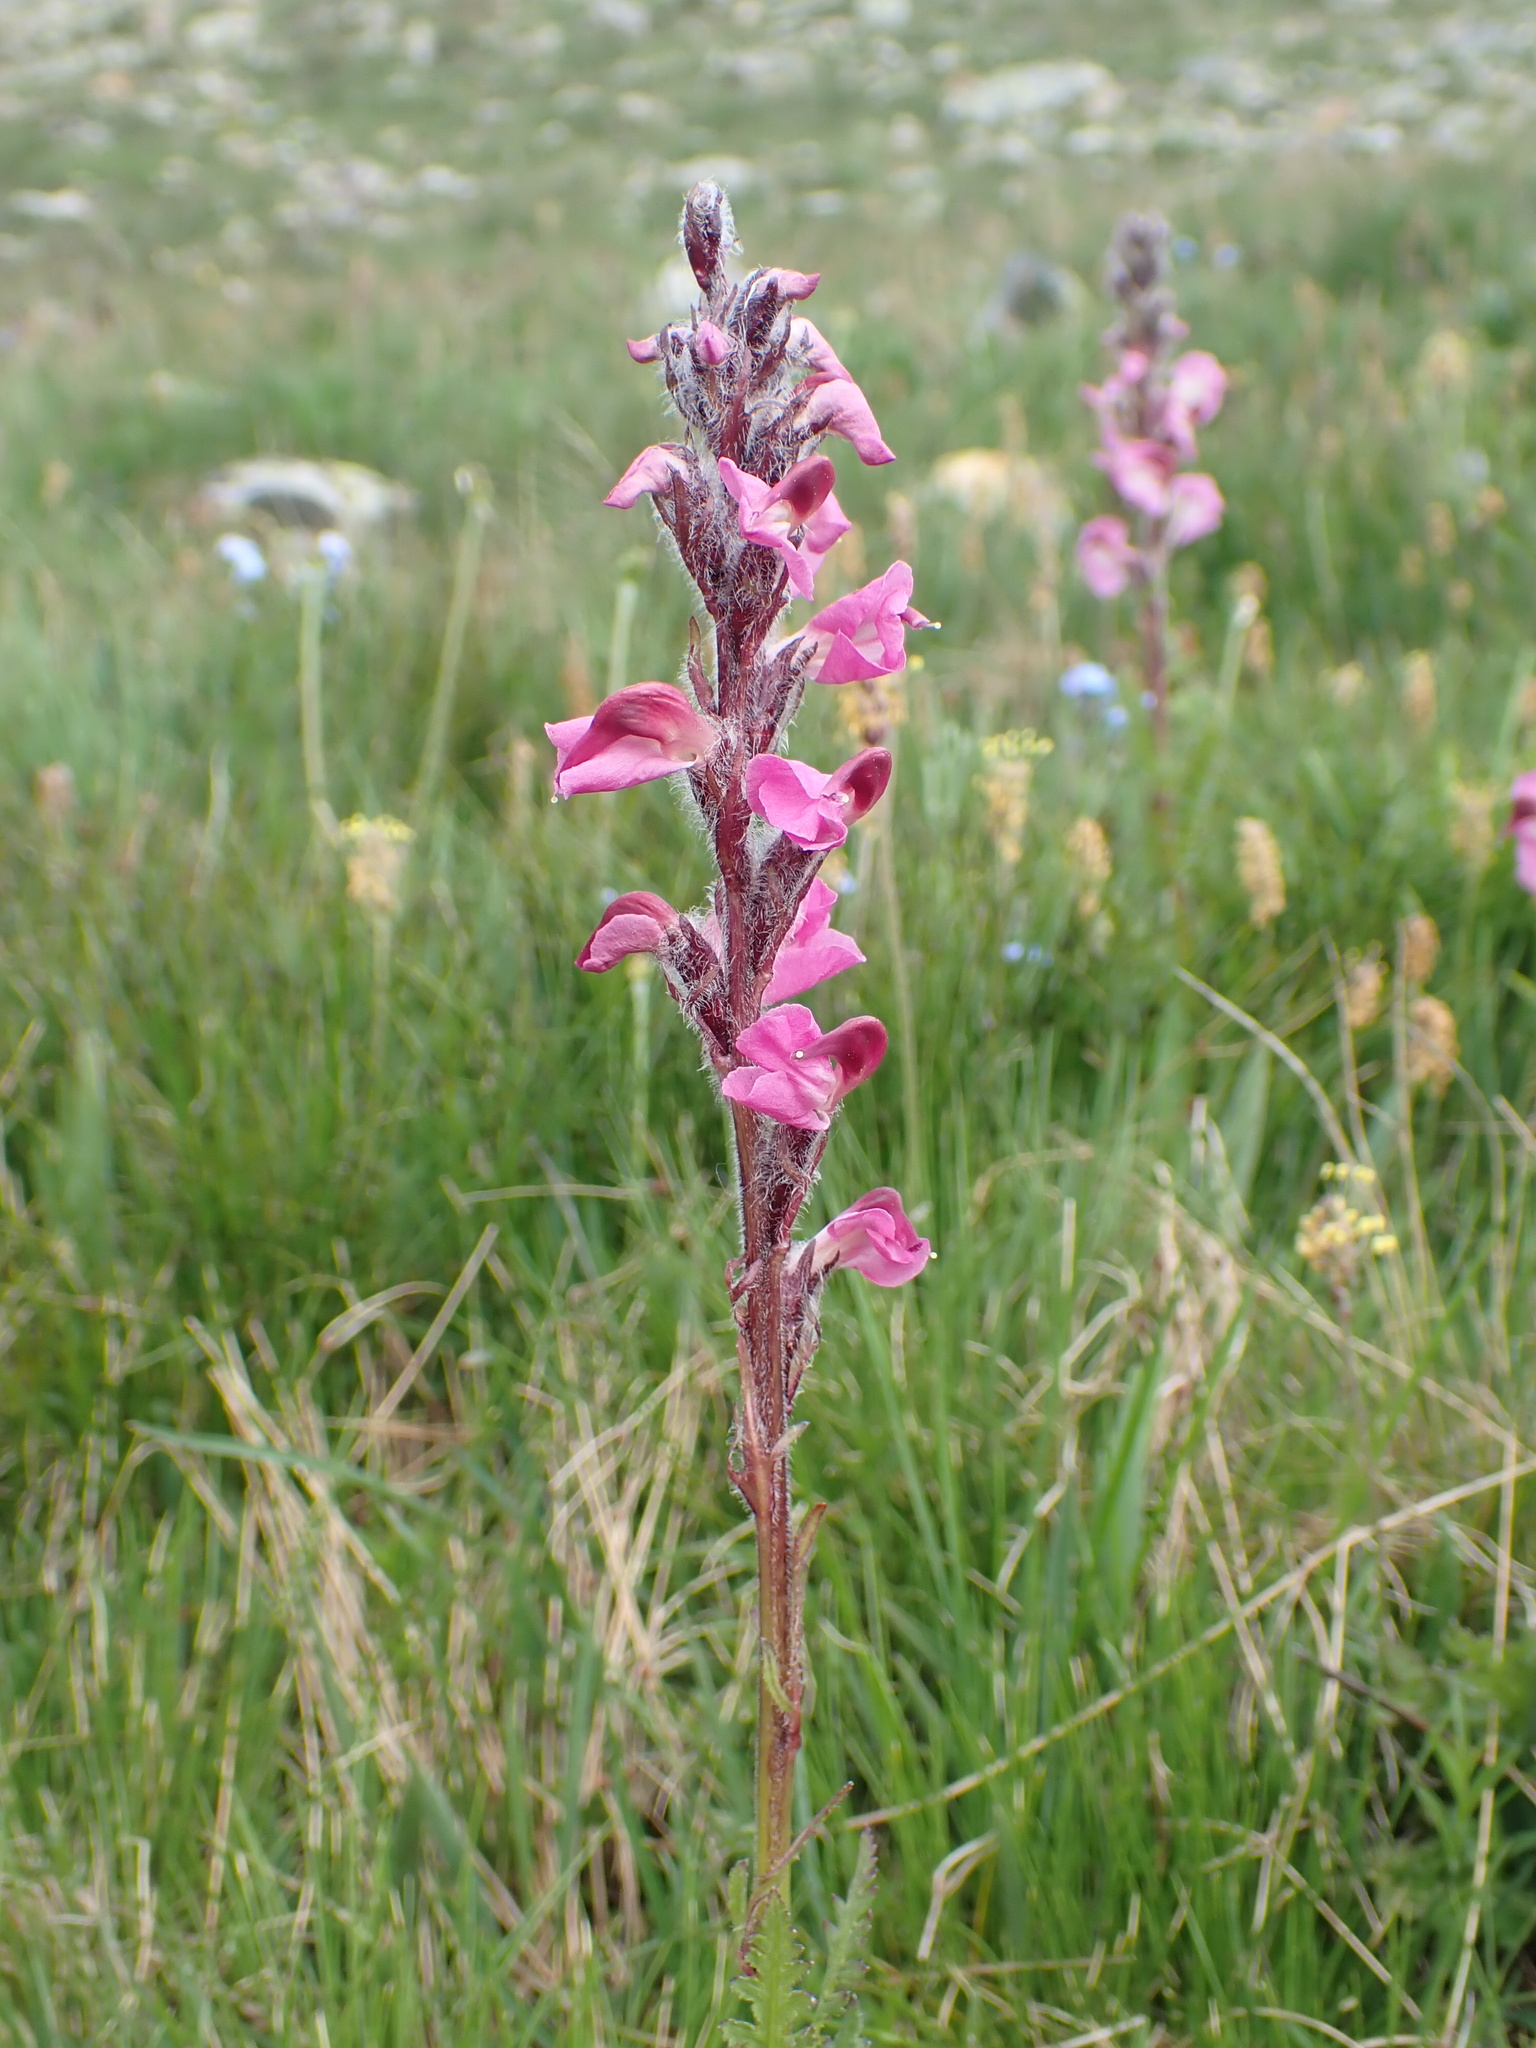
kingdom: Plantae
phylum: Tracheophyta
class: Magnoliopsida
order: Lamiales
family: Orobanchaceae
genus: Pedicularis
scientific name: Pedicularis rostratospicata
